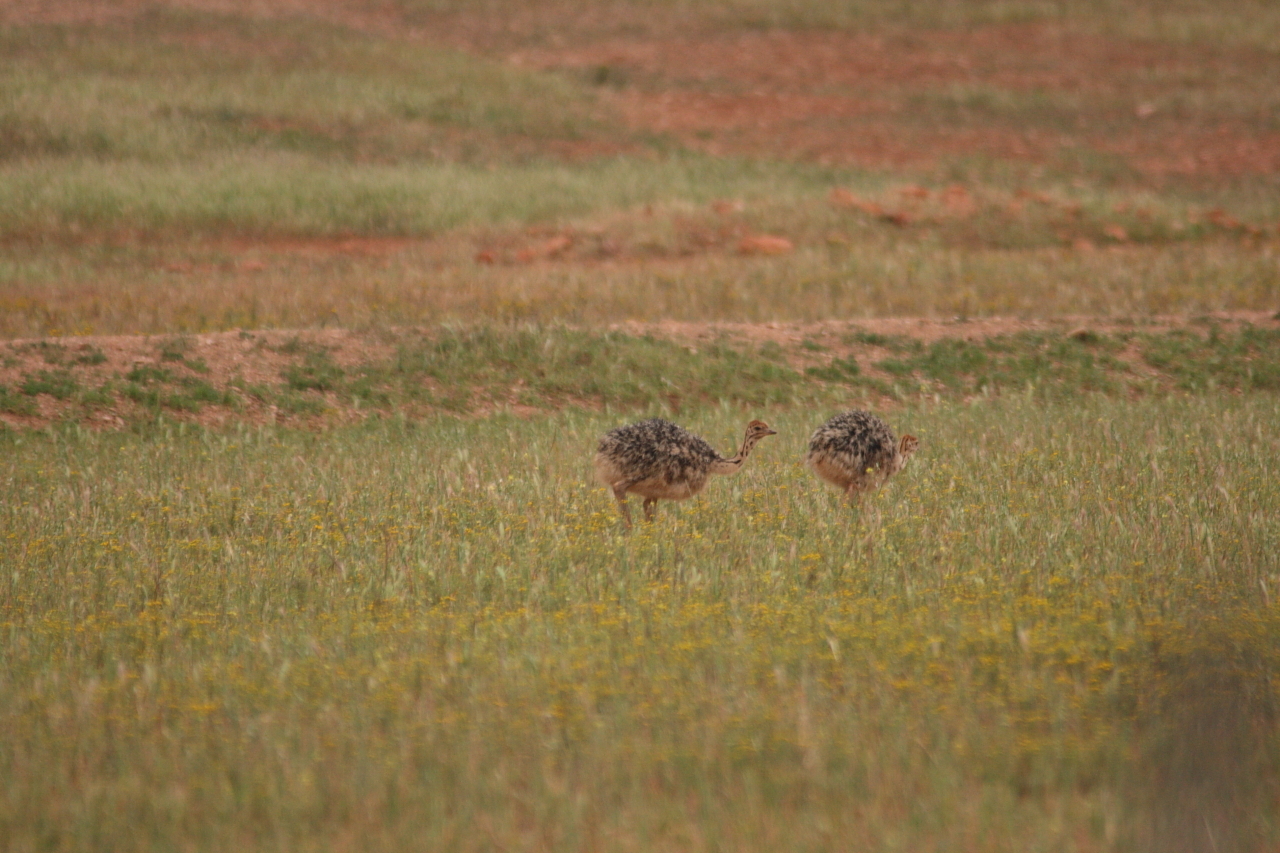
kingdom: Animalia
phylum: Chordata
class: Aves
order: Struthioniformes
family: Struthionidae
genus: Struthio
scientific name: Struthio camelus
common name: Common ostrich
